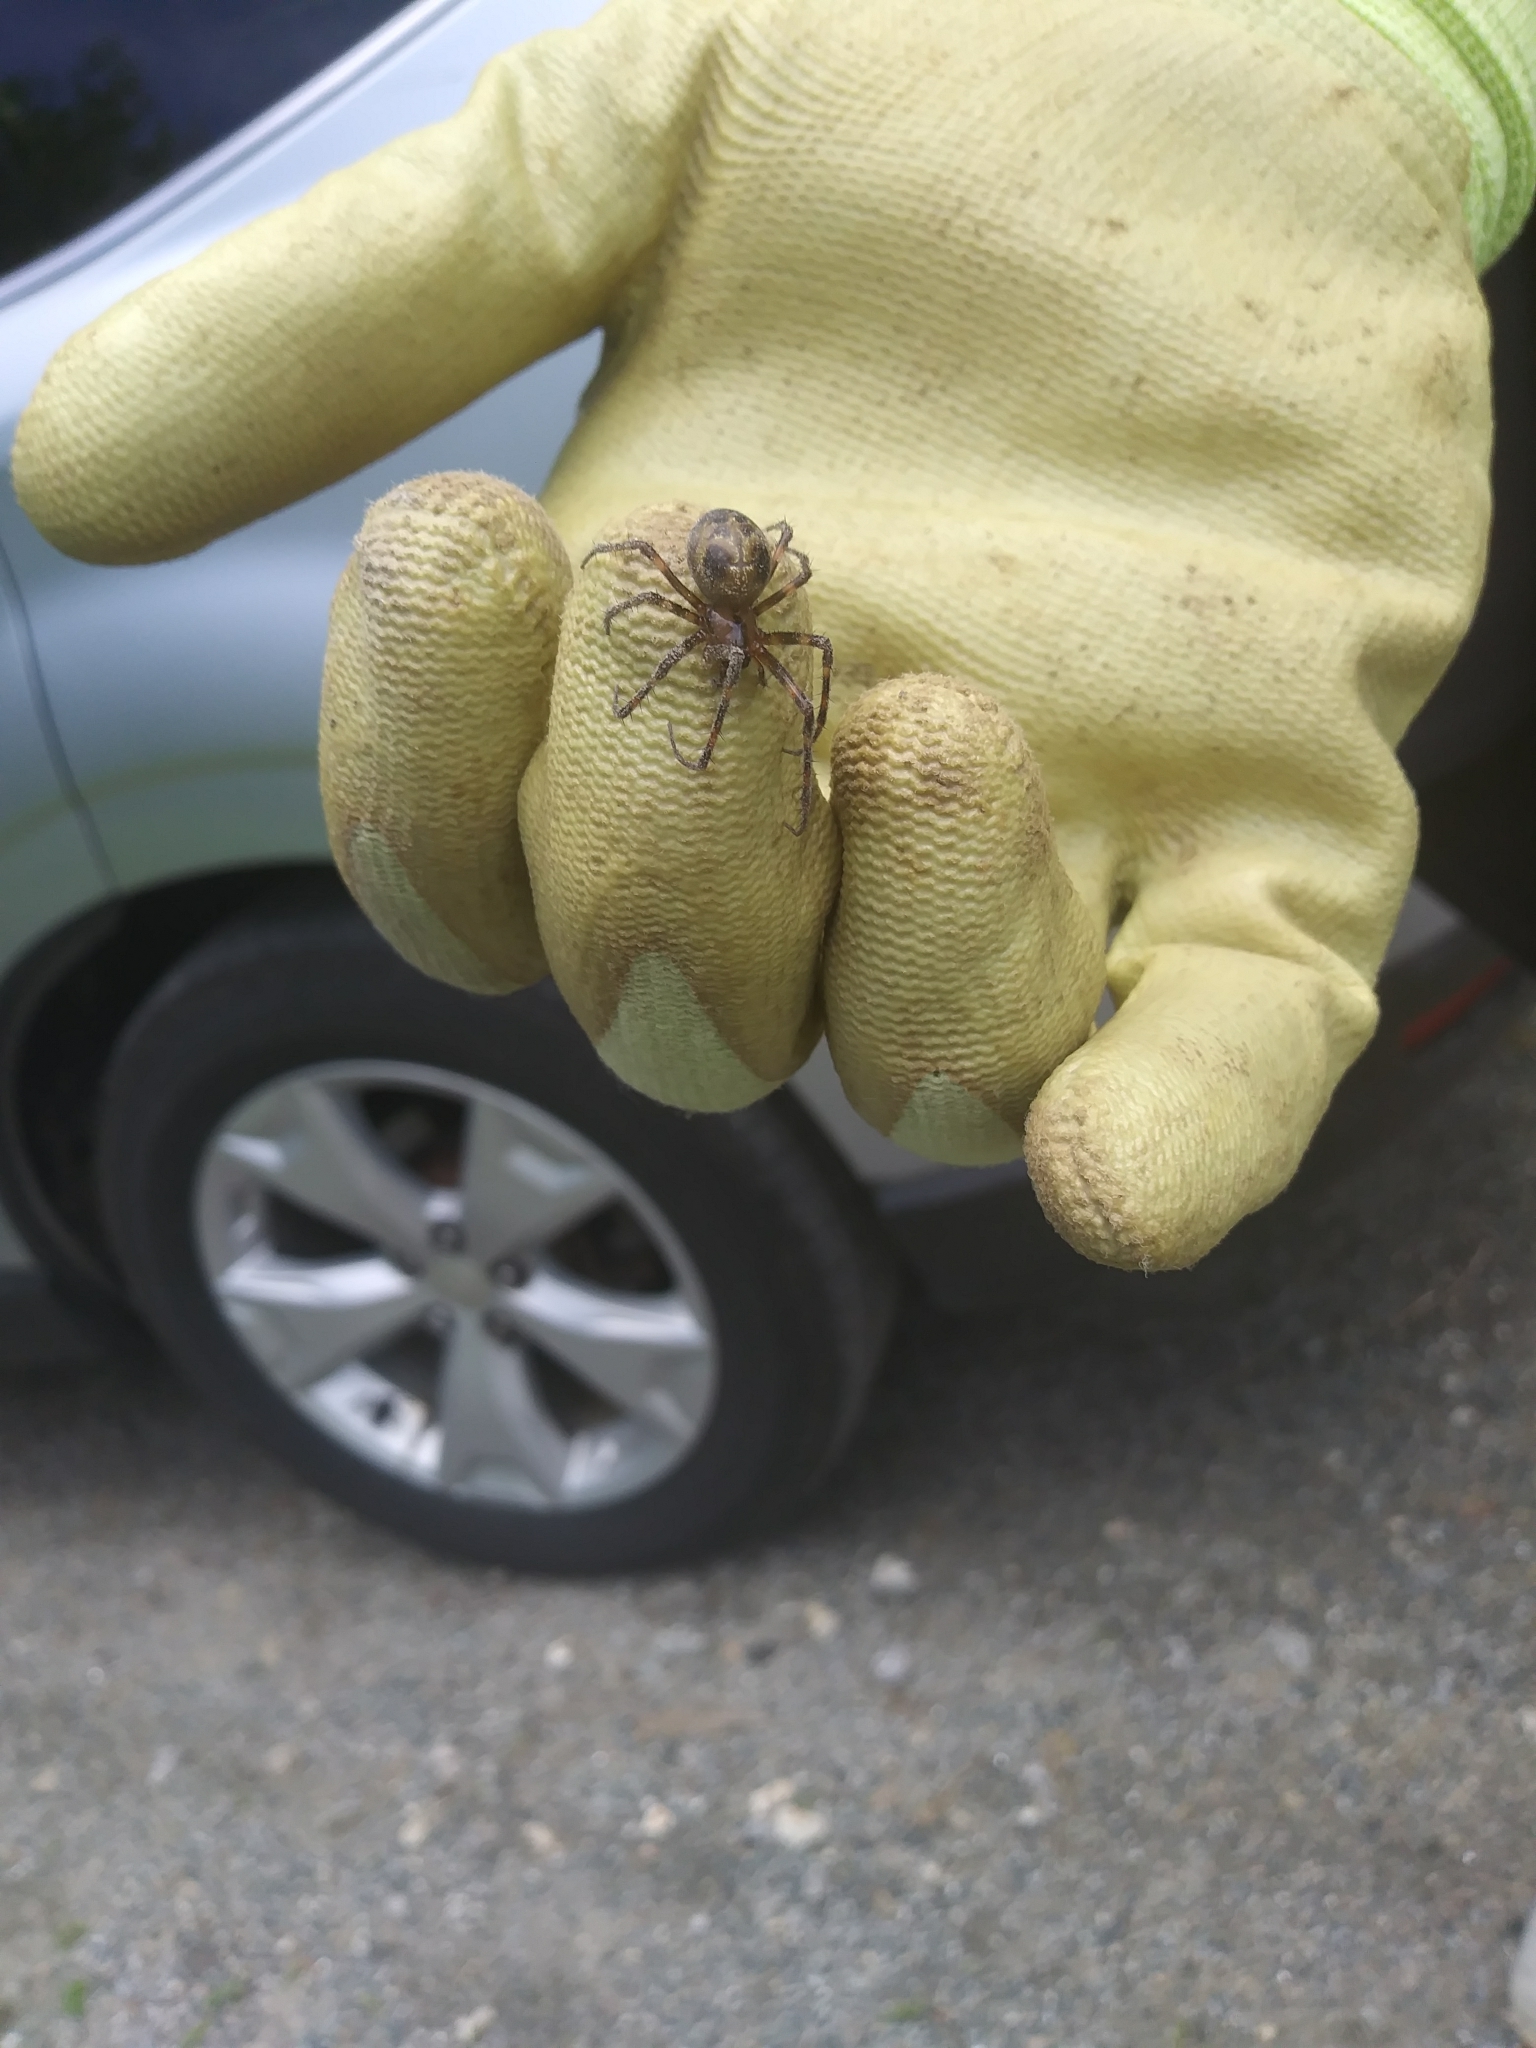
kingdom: Animalia
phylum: Arthropoda
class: Arachnida
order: Araneae
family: Tetragnathidae
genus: Meta
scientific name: Meta ovalis
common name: Eastern cave long-jawed spider
